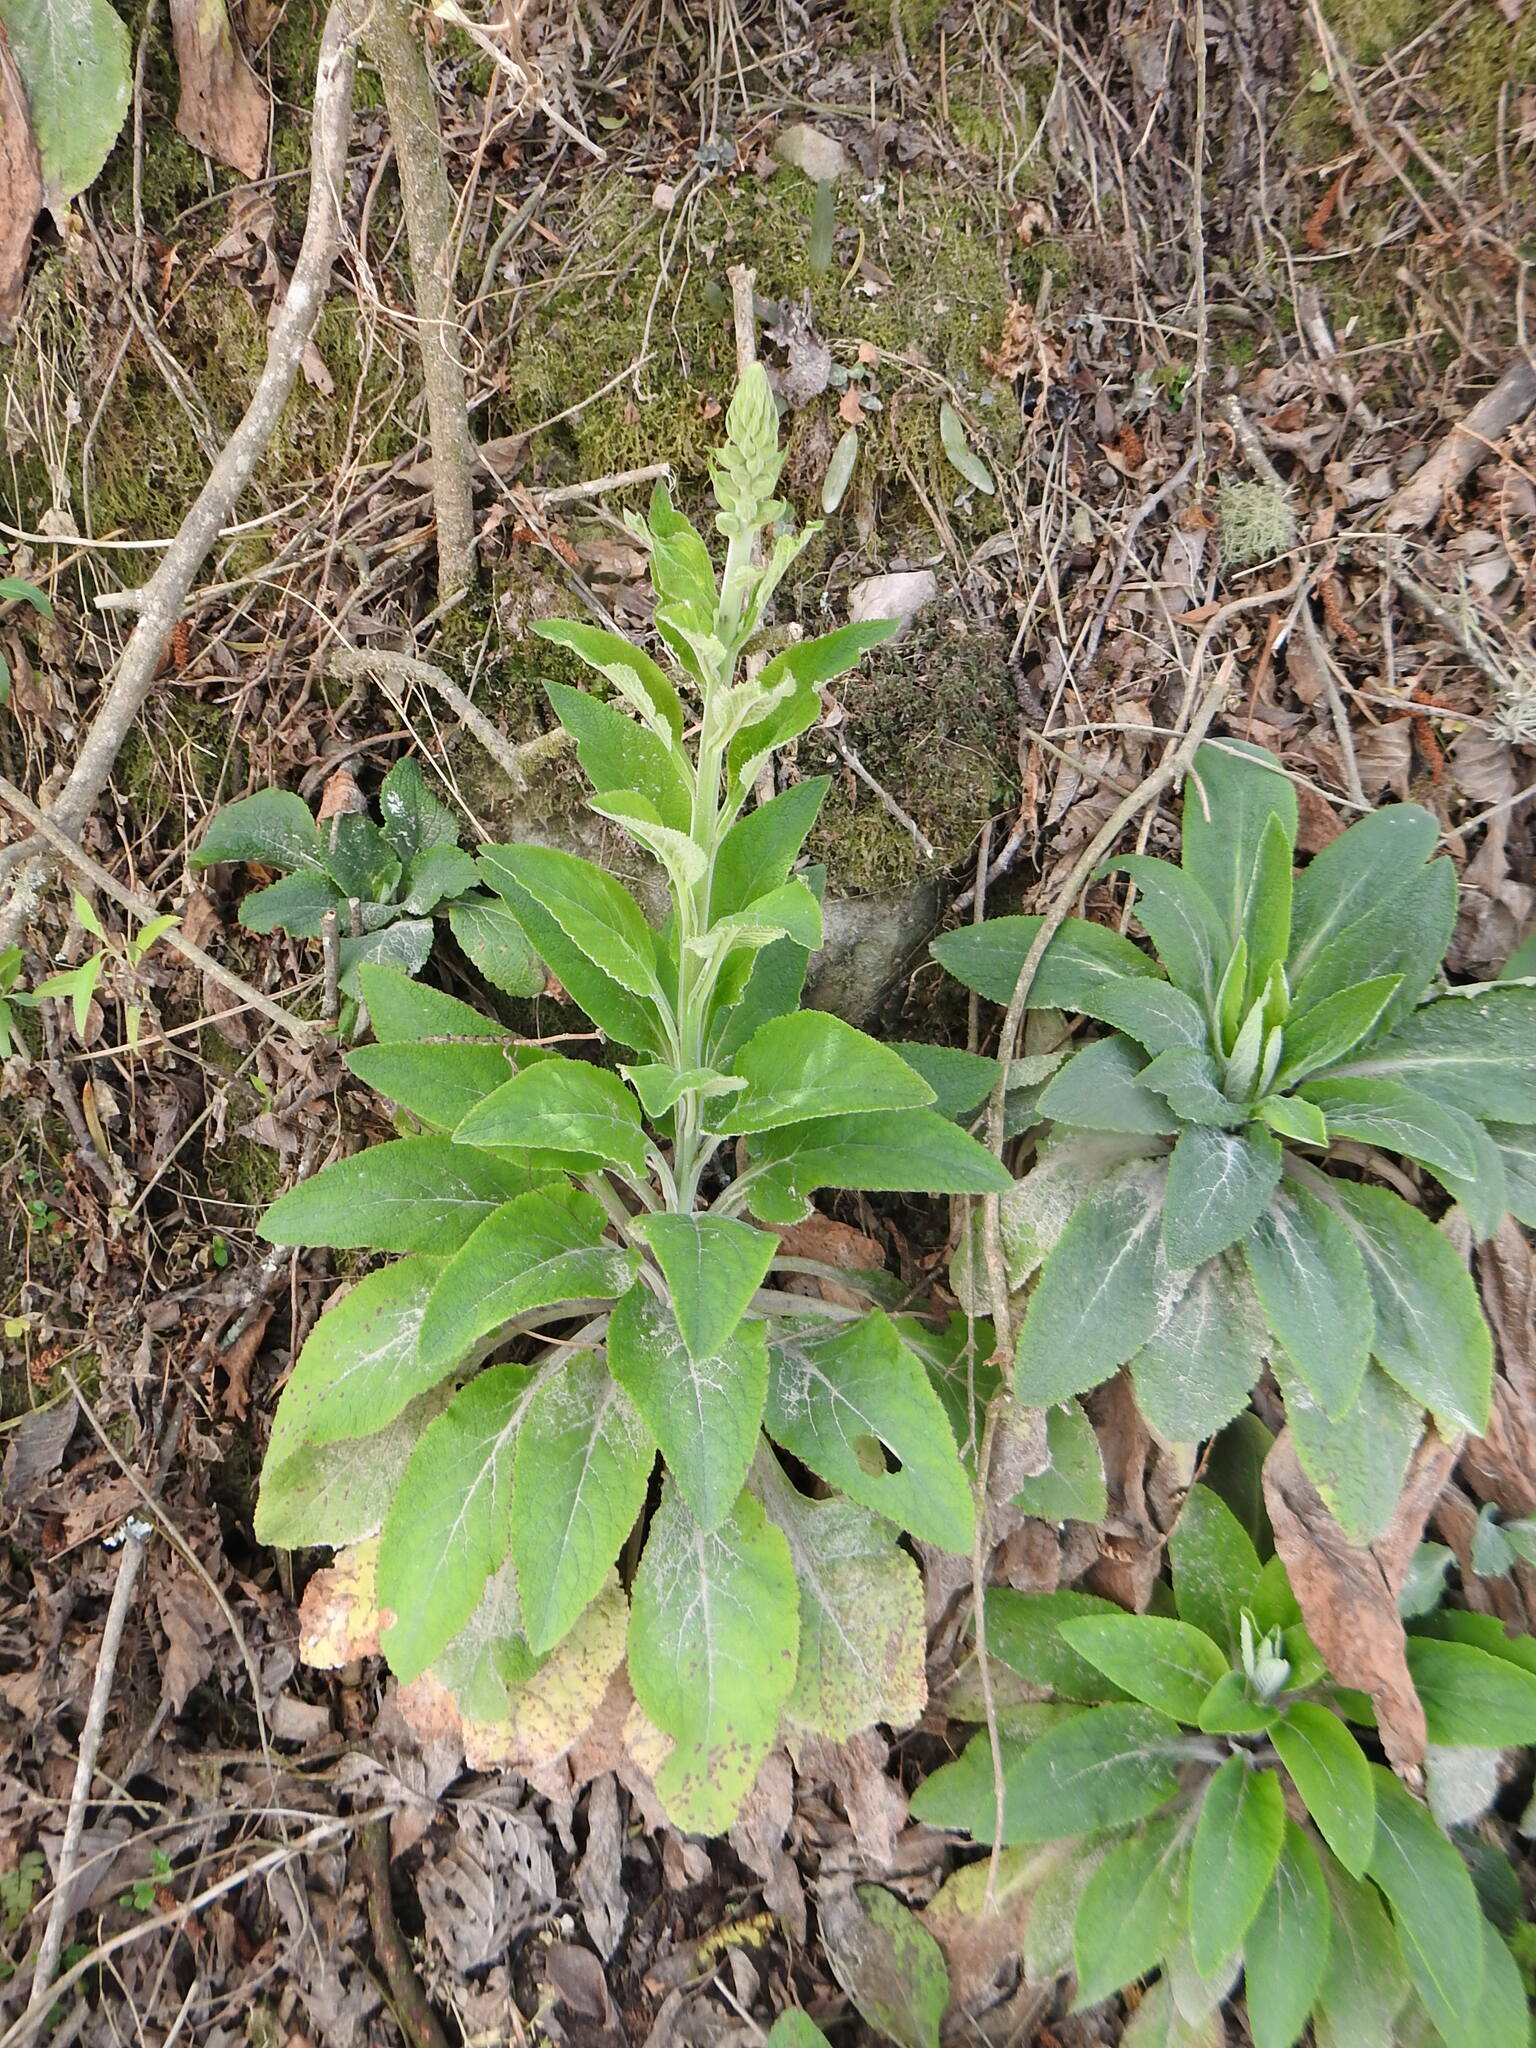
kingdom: Plantae
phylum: Tracheophyta
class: Magnoliopsida
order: Lamiales
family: Plantaginaceae
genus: Digitalis
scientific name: Digitalis purpurea
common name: Foxglove
